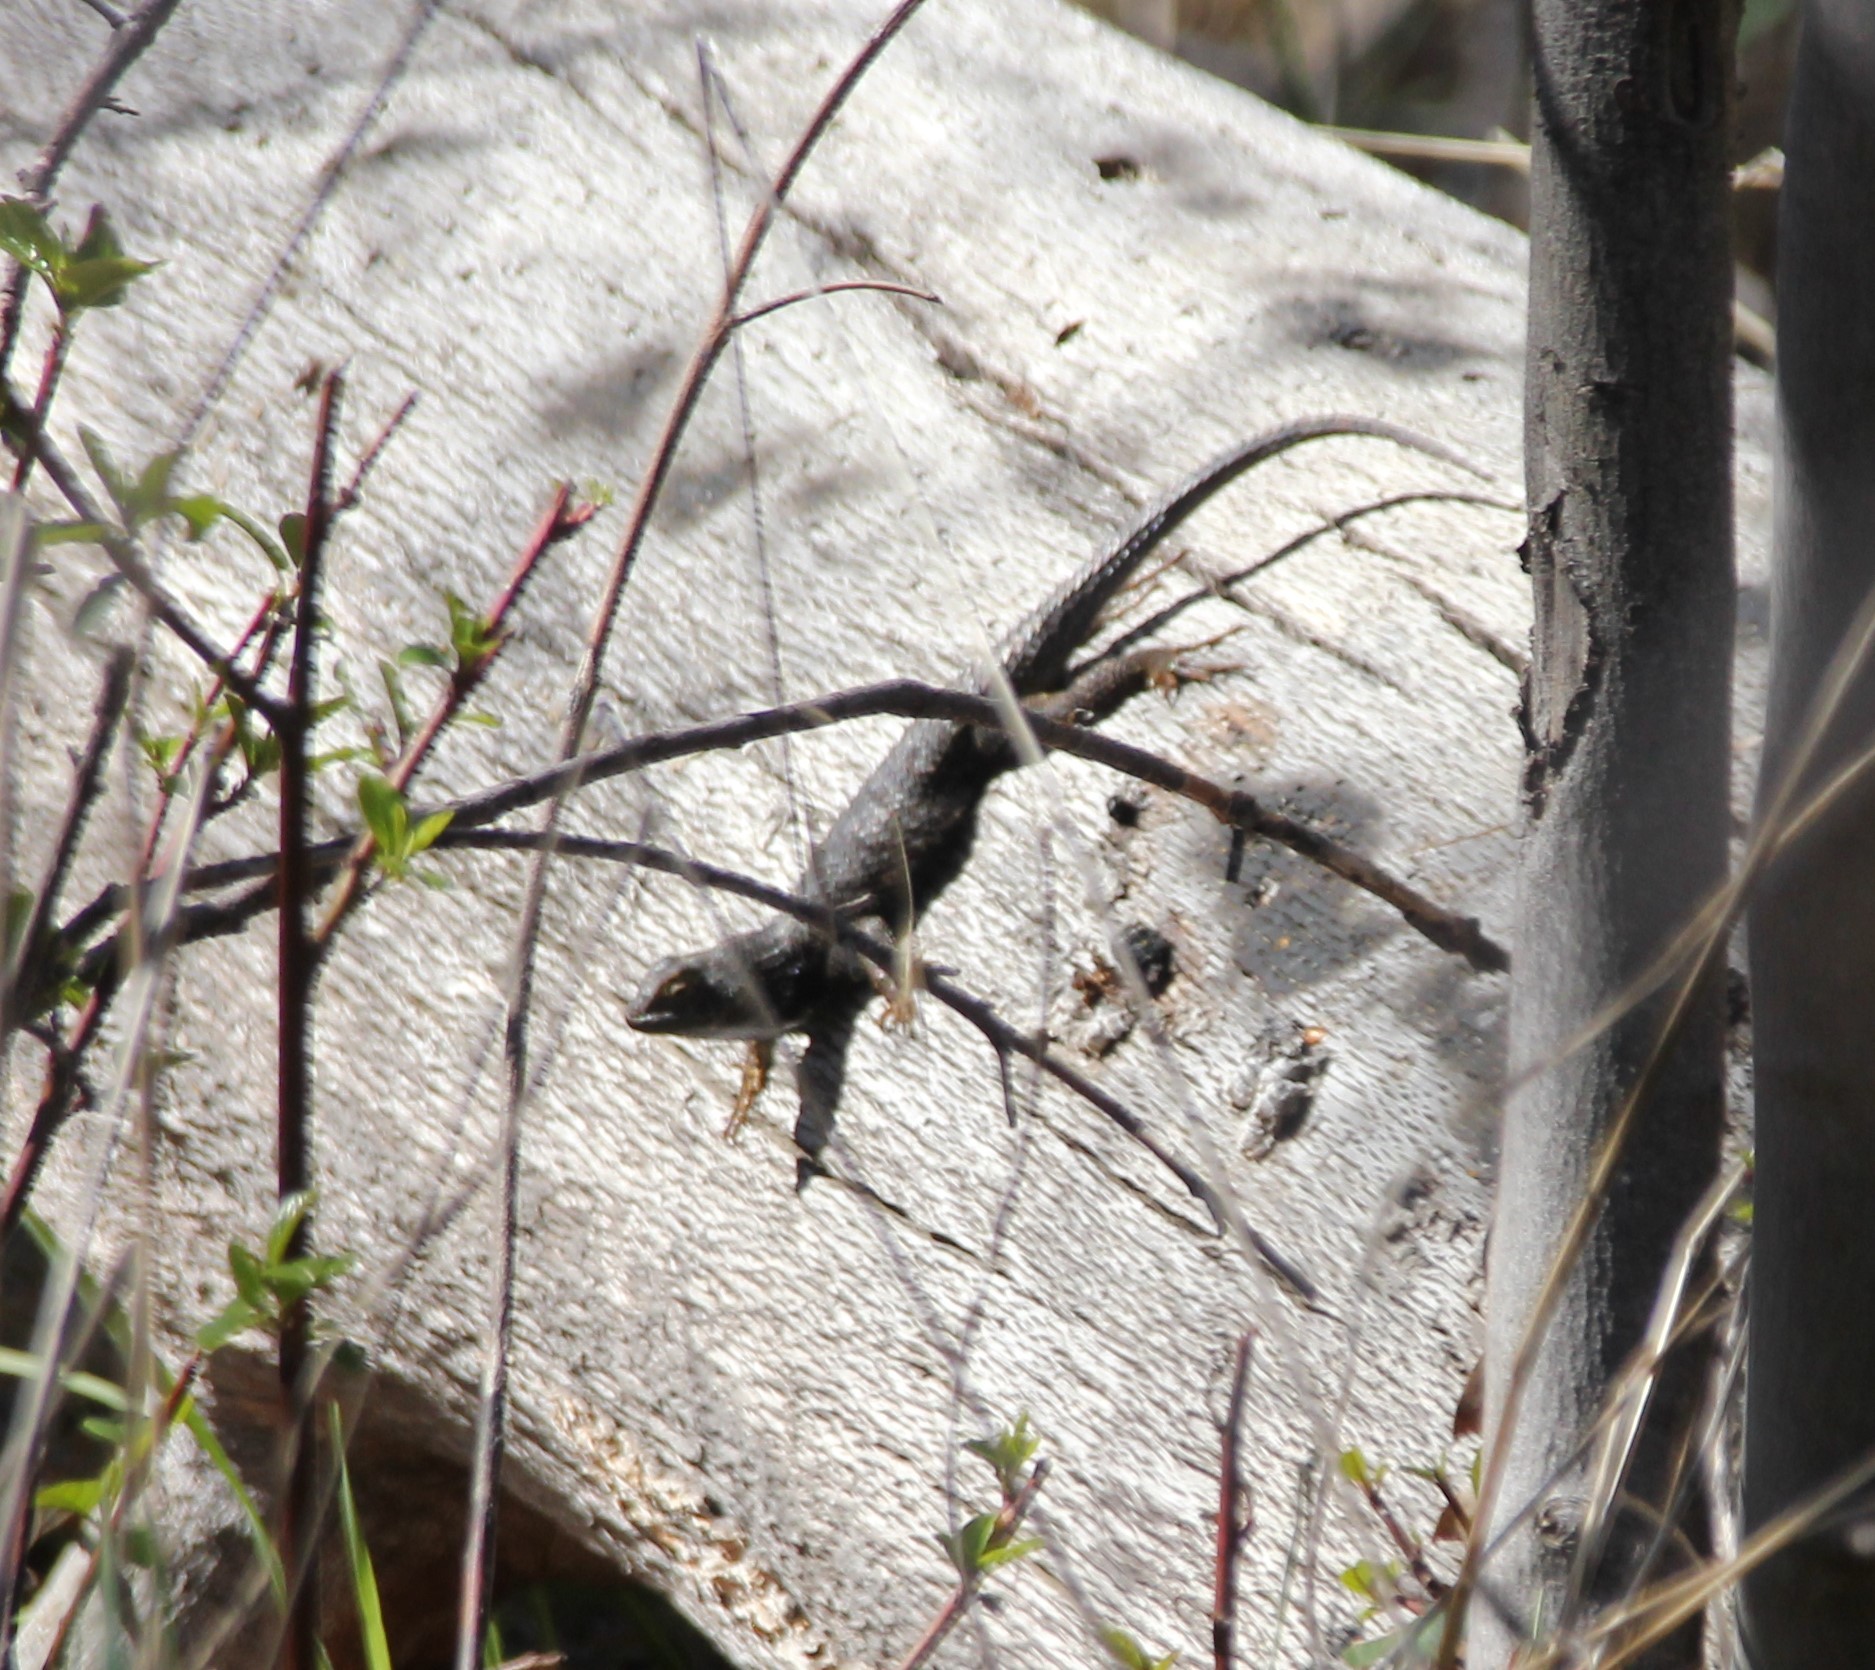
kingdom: Animalia
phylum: Chordata
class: Squamata
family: Phrynosomatidae
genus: Sceloporus
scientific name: Sceloporus occidentalis
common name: Western fence lizard
